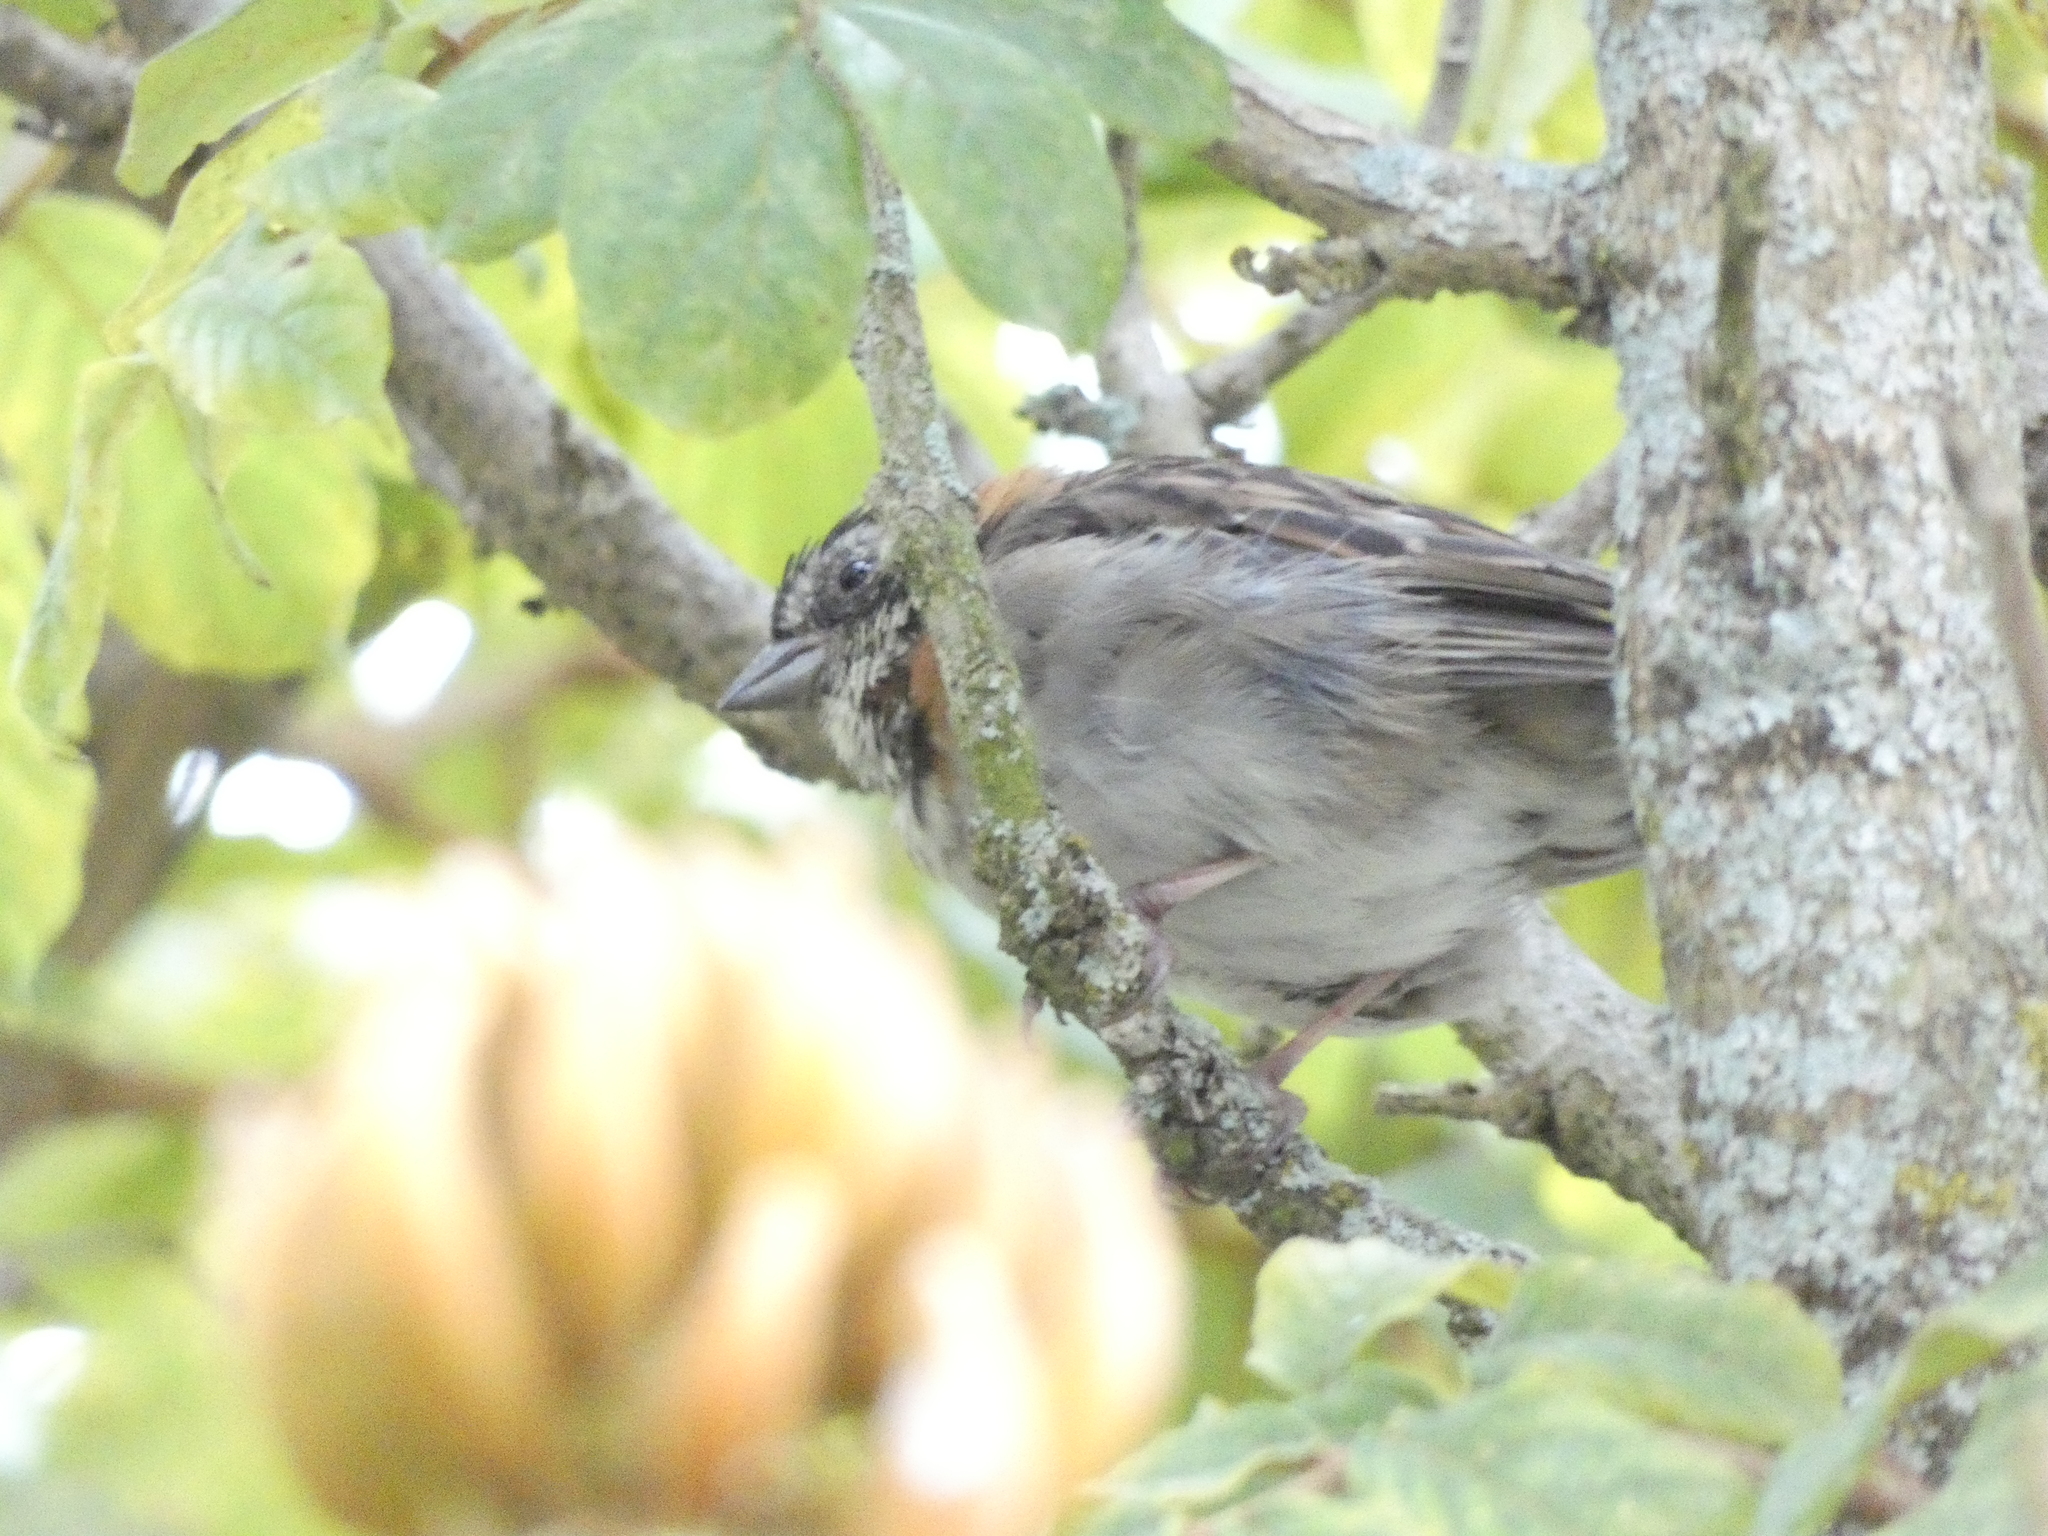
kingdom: Animalia
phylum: Chordata
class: Aves
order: Passeriformes
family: Passerellidae
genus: Zonotrichia
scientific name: Zonotrichia capensis
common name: Rufous-collared sparrow
